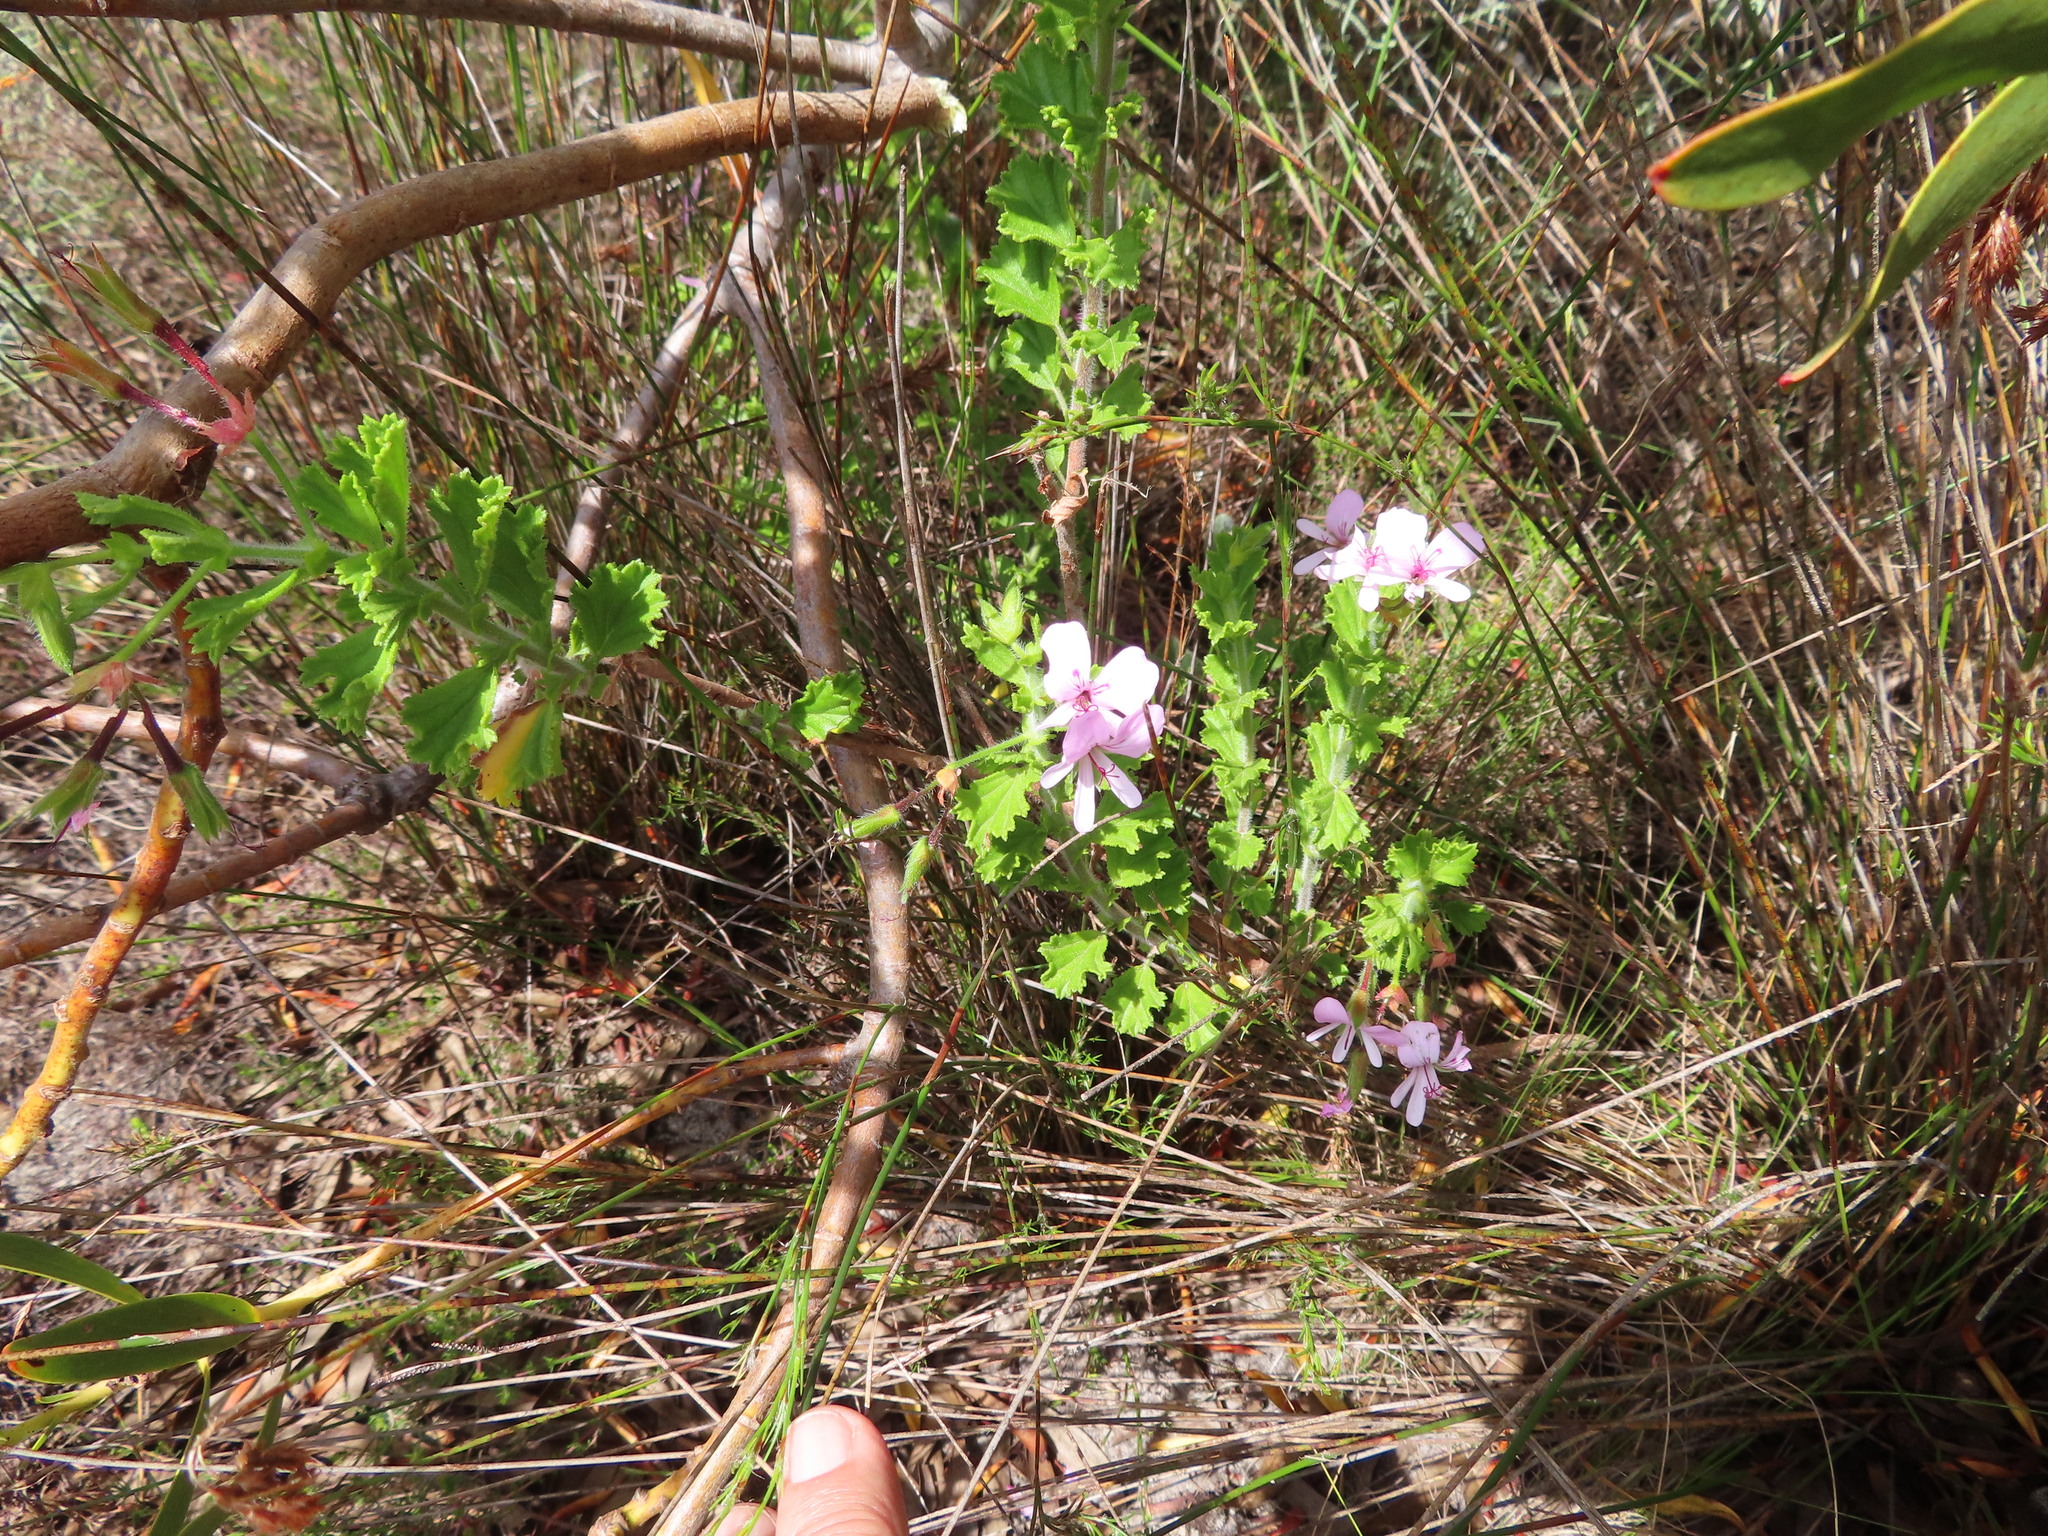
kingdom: Plantae
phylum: Tracheophyta
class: Magnoliopsida
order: Geraniales
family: Geraniaceae
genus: Pelargonium
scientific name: Pelargonium hermaniifolium
